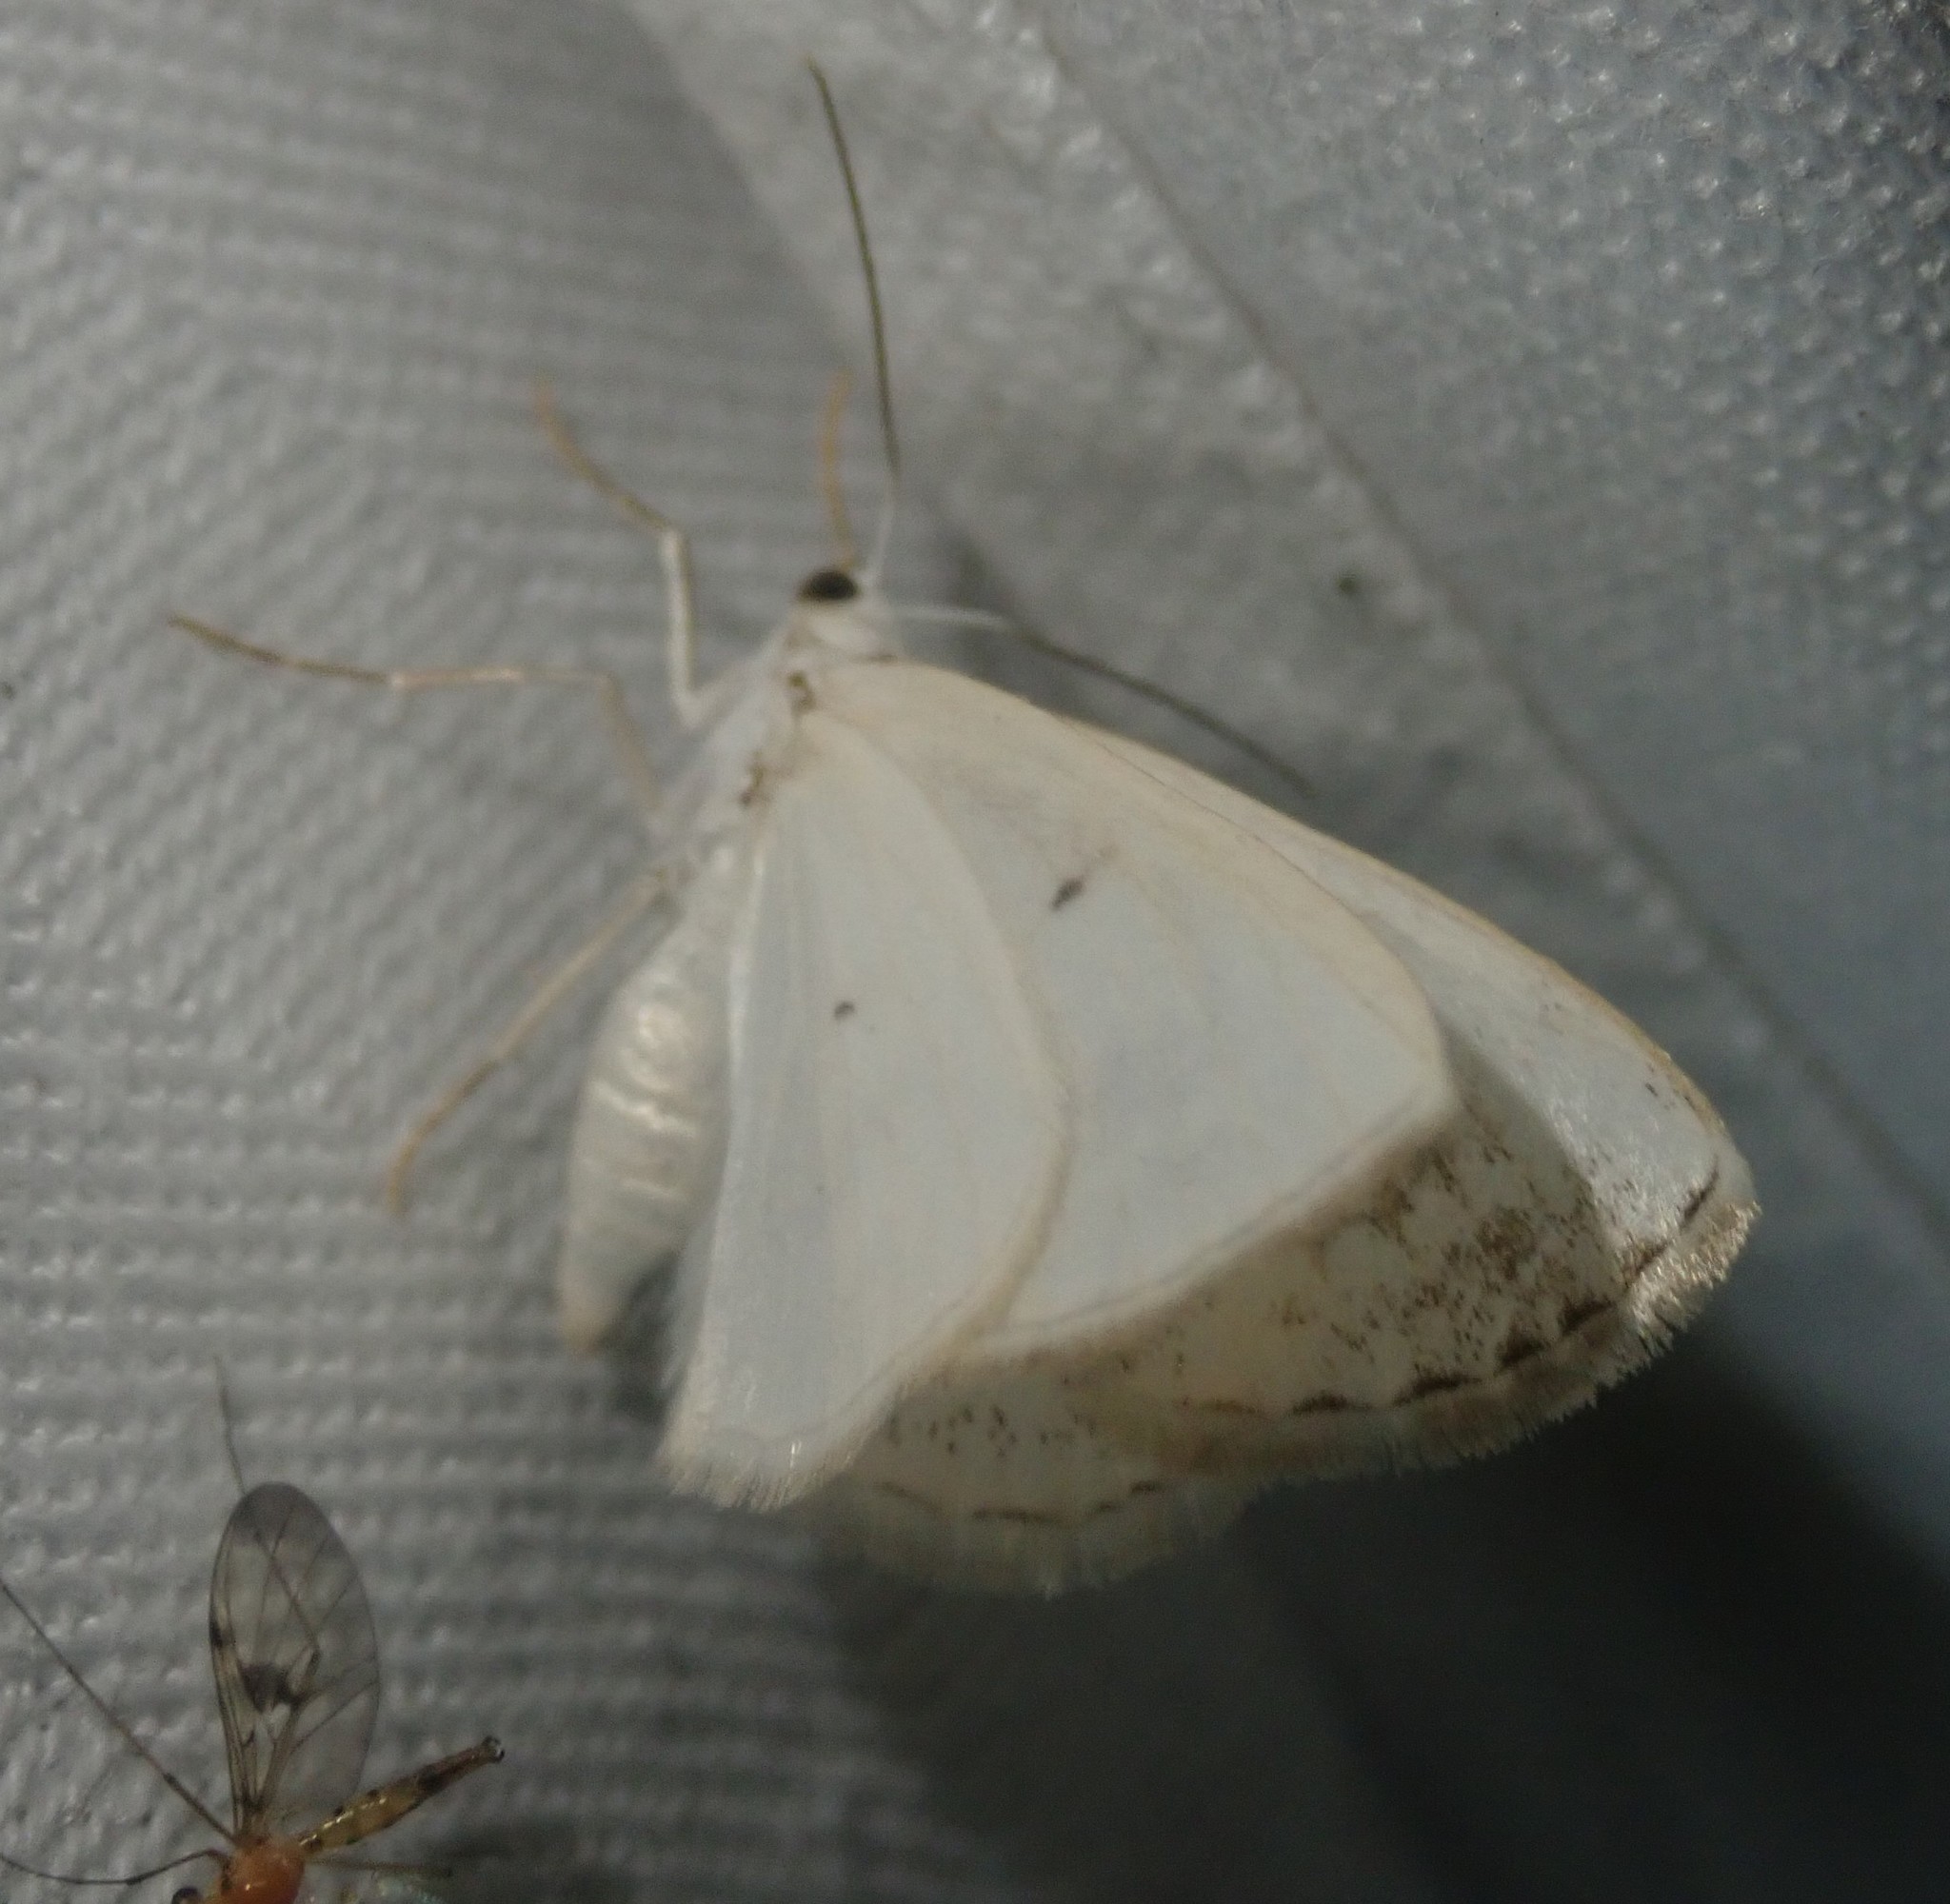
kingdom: Animalia
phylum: Arthropoda
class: Insecta
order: Lepidoptera
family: Geometridae
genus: Lomographa
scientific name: Lomographa temerata
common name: Clouded silver
